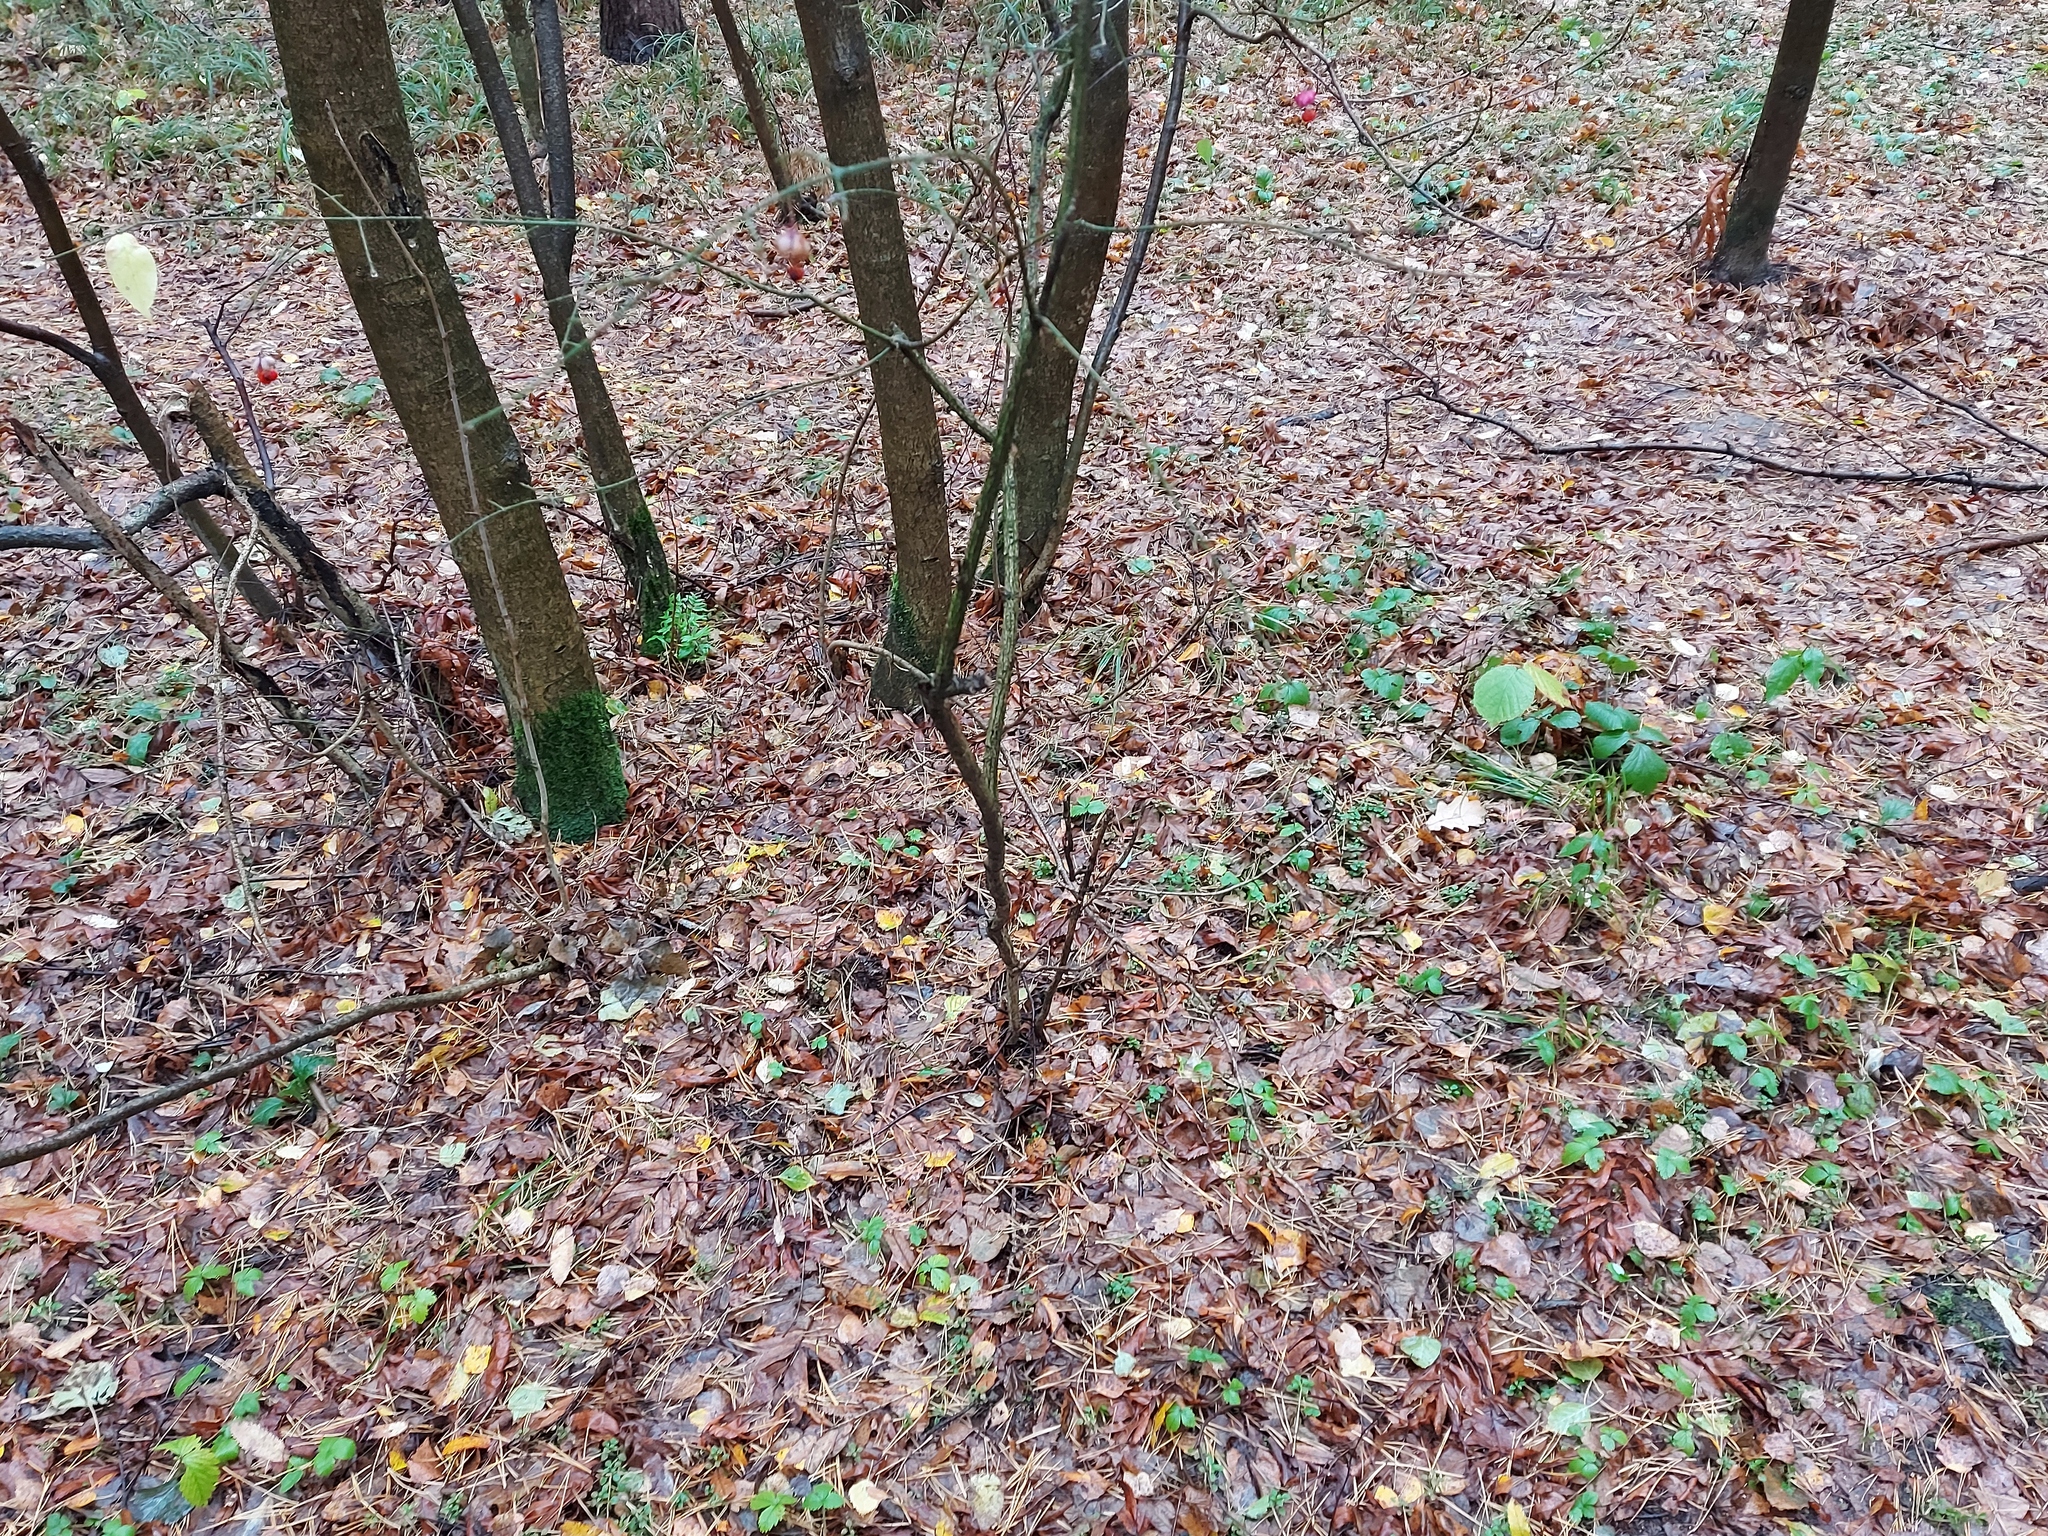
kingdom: Plantae
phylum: Tracheophyta
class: Magnoliopsida
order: Celastrales
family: Celastraceae
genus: Euonymus
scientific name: Euonymus verrucosus
